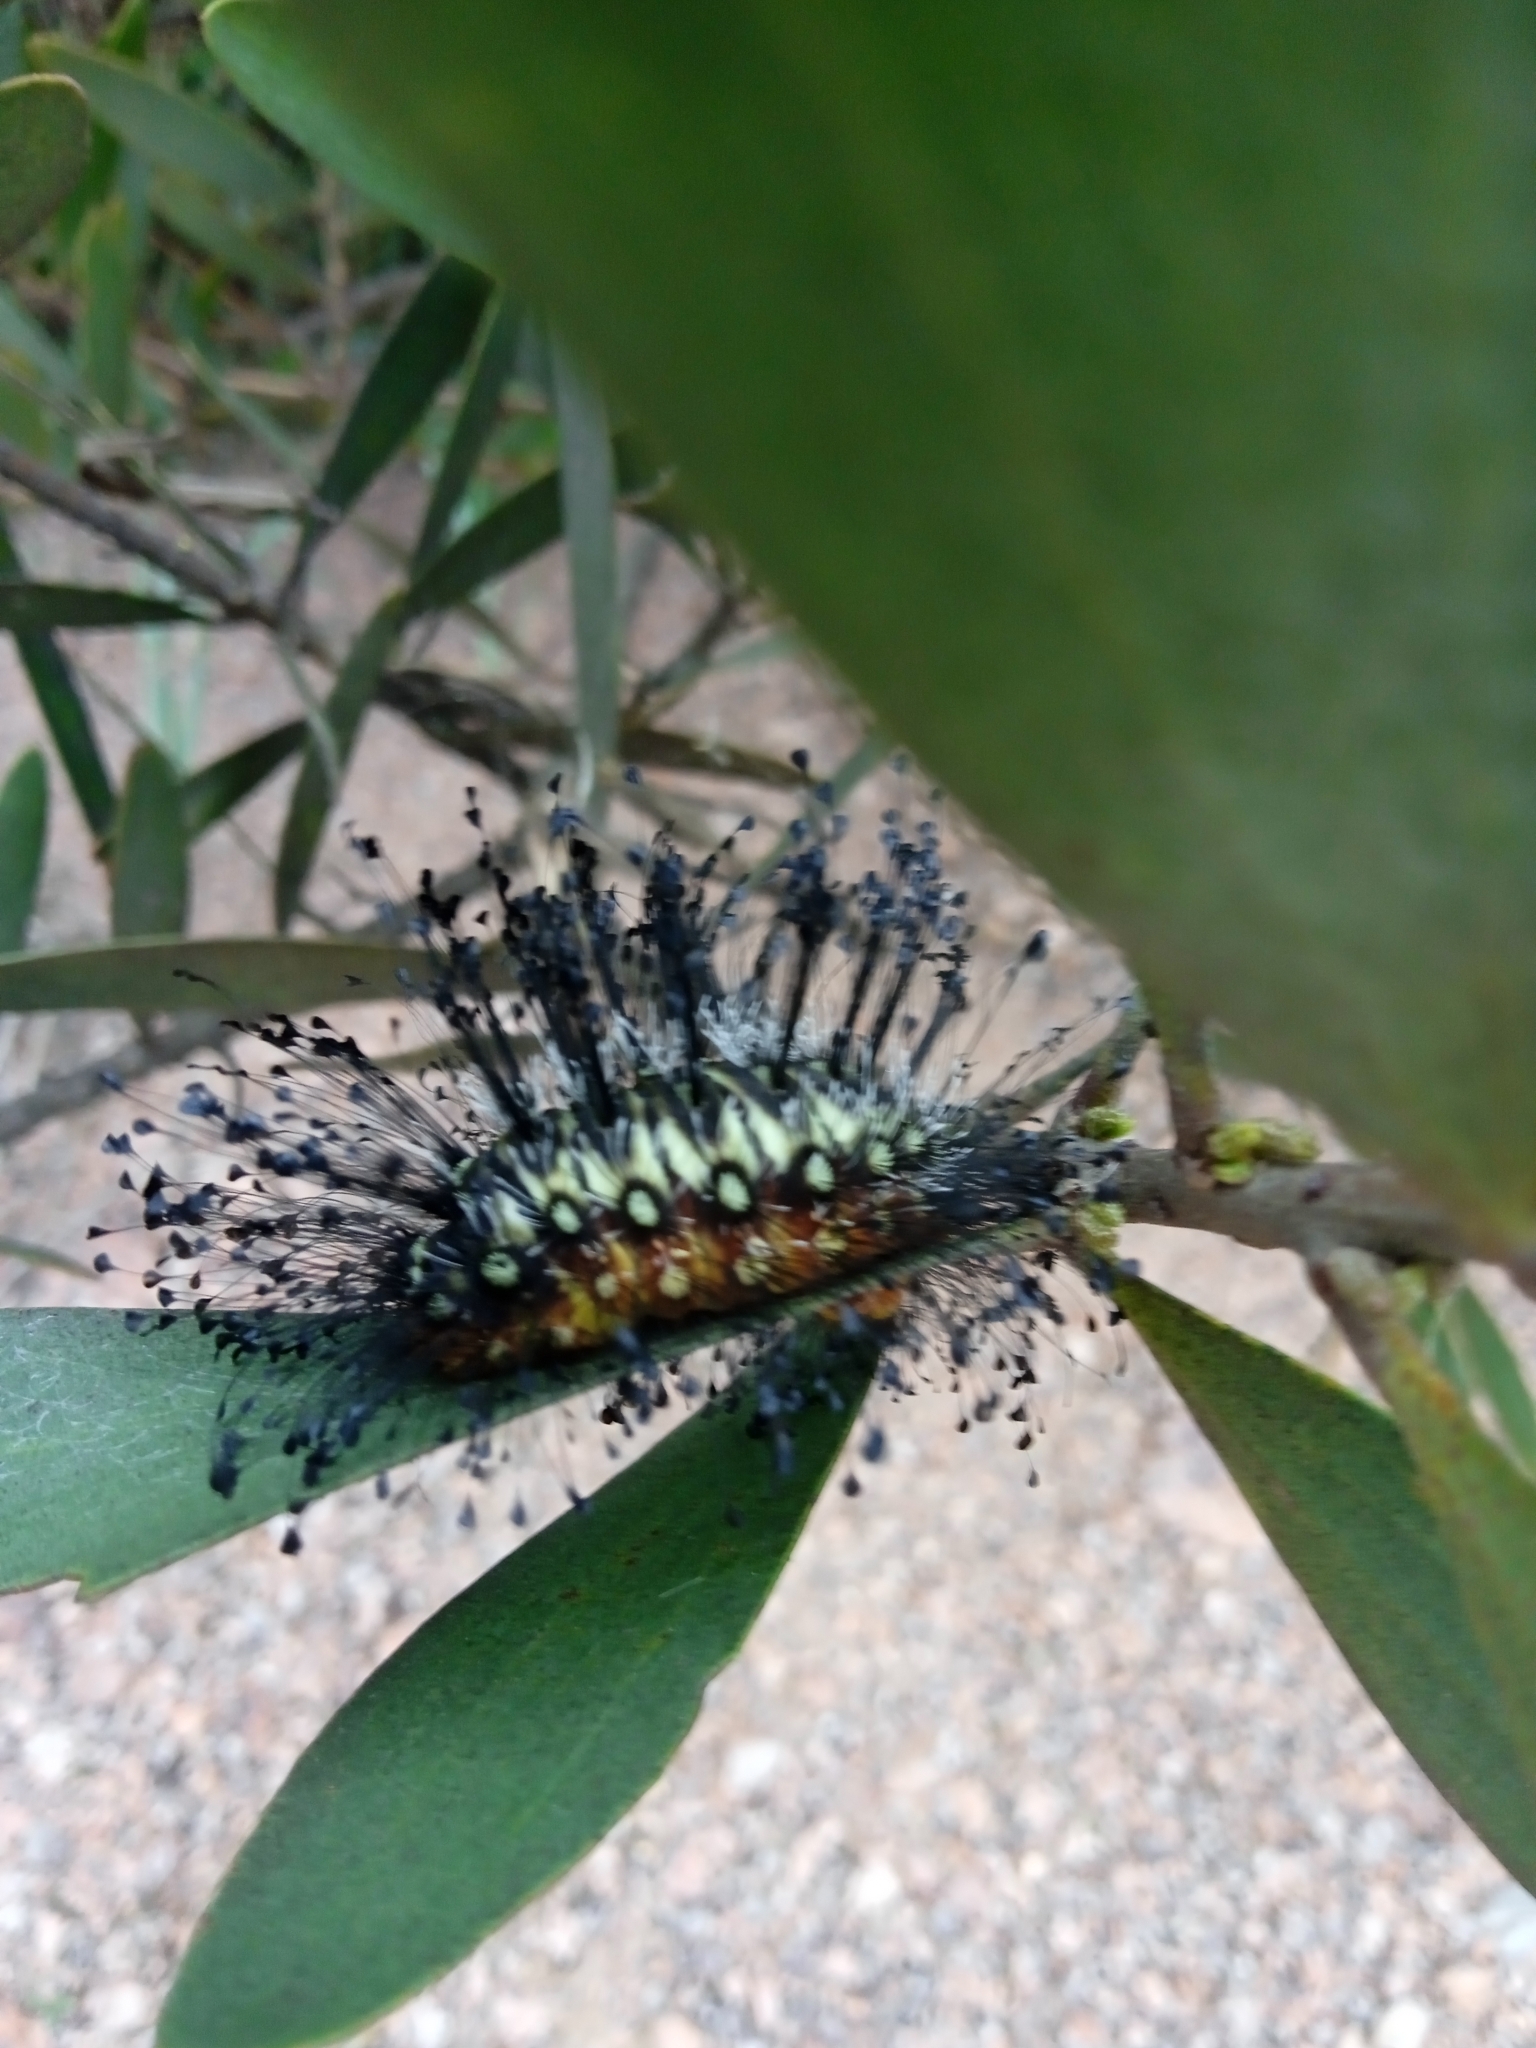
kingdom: Animalia
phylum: Arthropoda
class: Insecta
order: Lepidoptera
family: Megalopygidae
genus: Megalopyge
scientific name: Megalopyge urens
